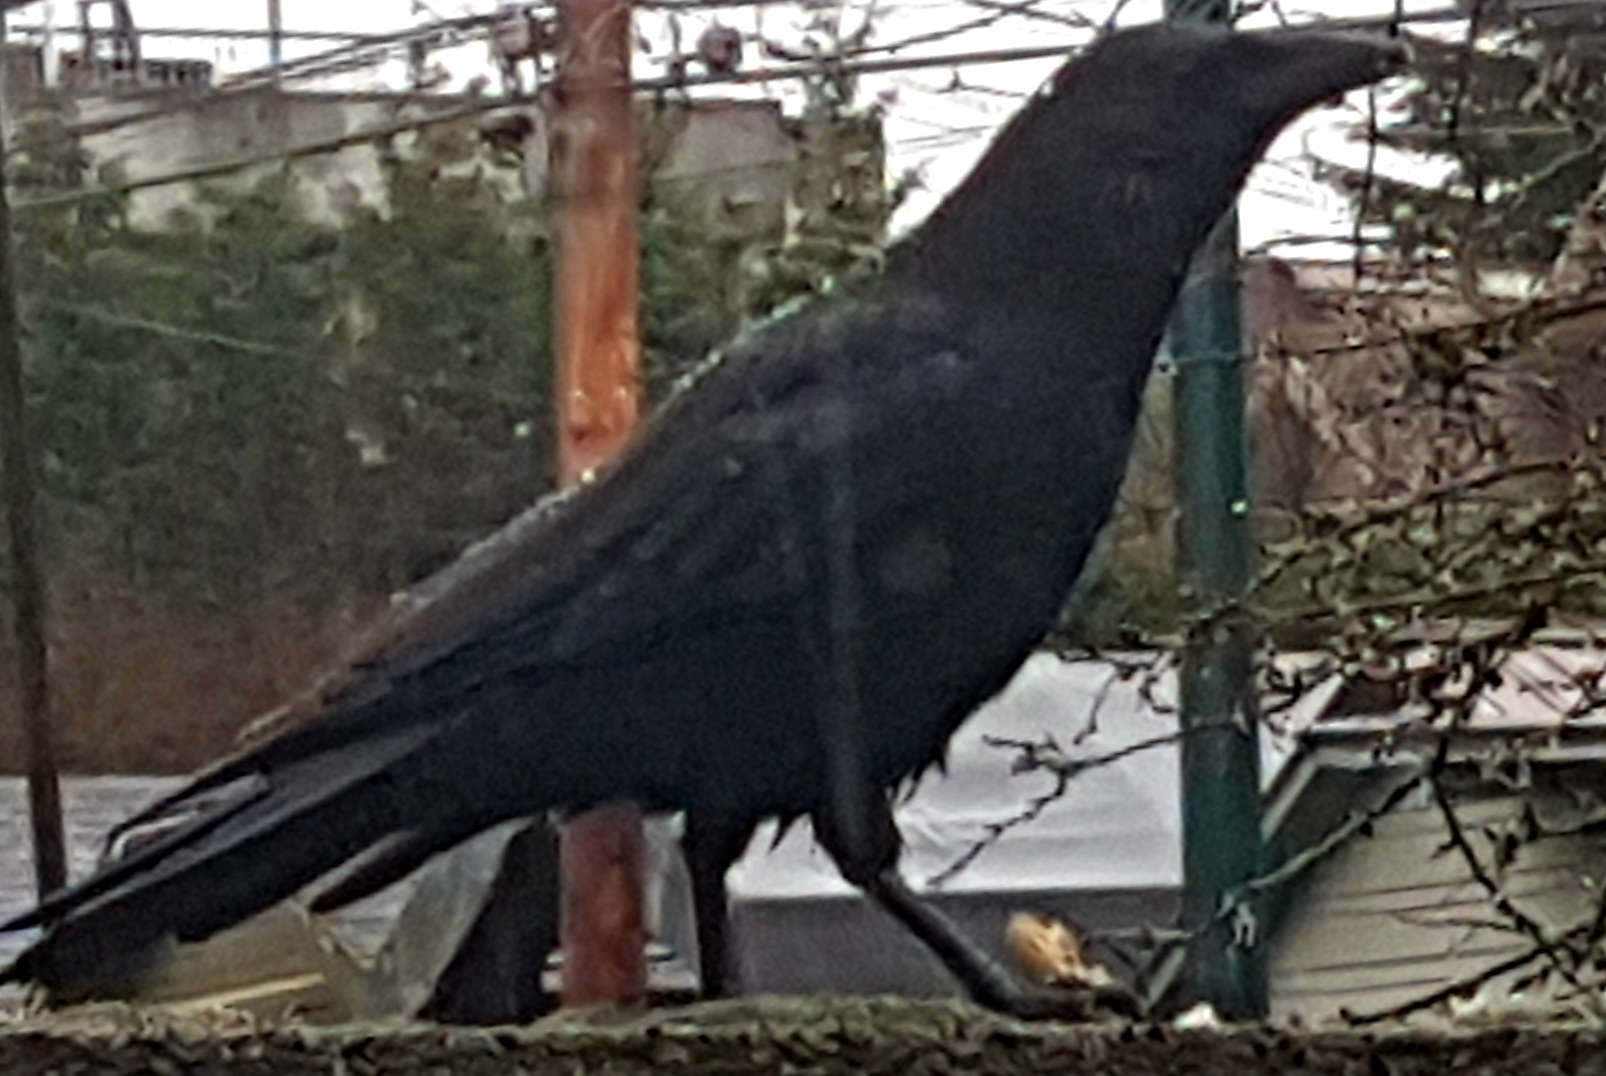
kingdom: Animalia
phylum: Chordata
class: Aves
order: Passeriformes
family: Corvidae
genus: Corvus
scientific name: Corvus brachyrhynchos
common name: American crow
